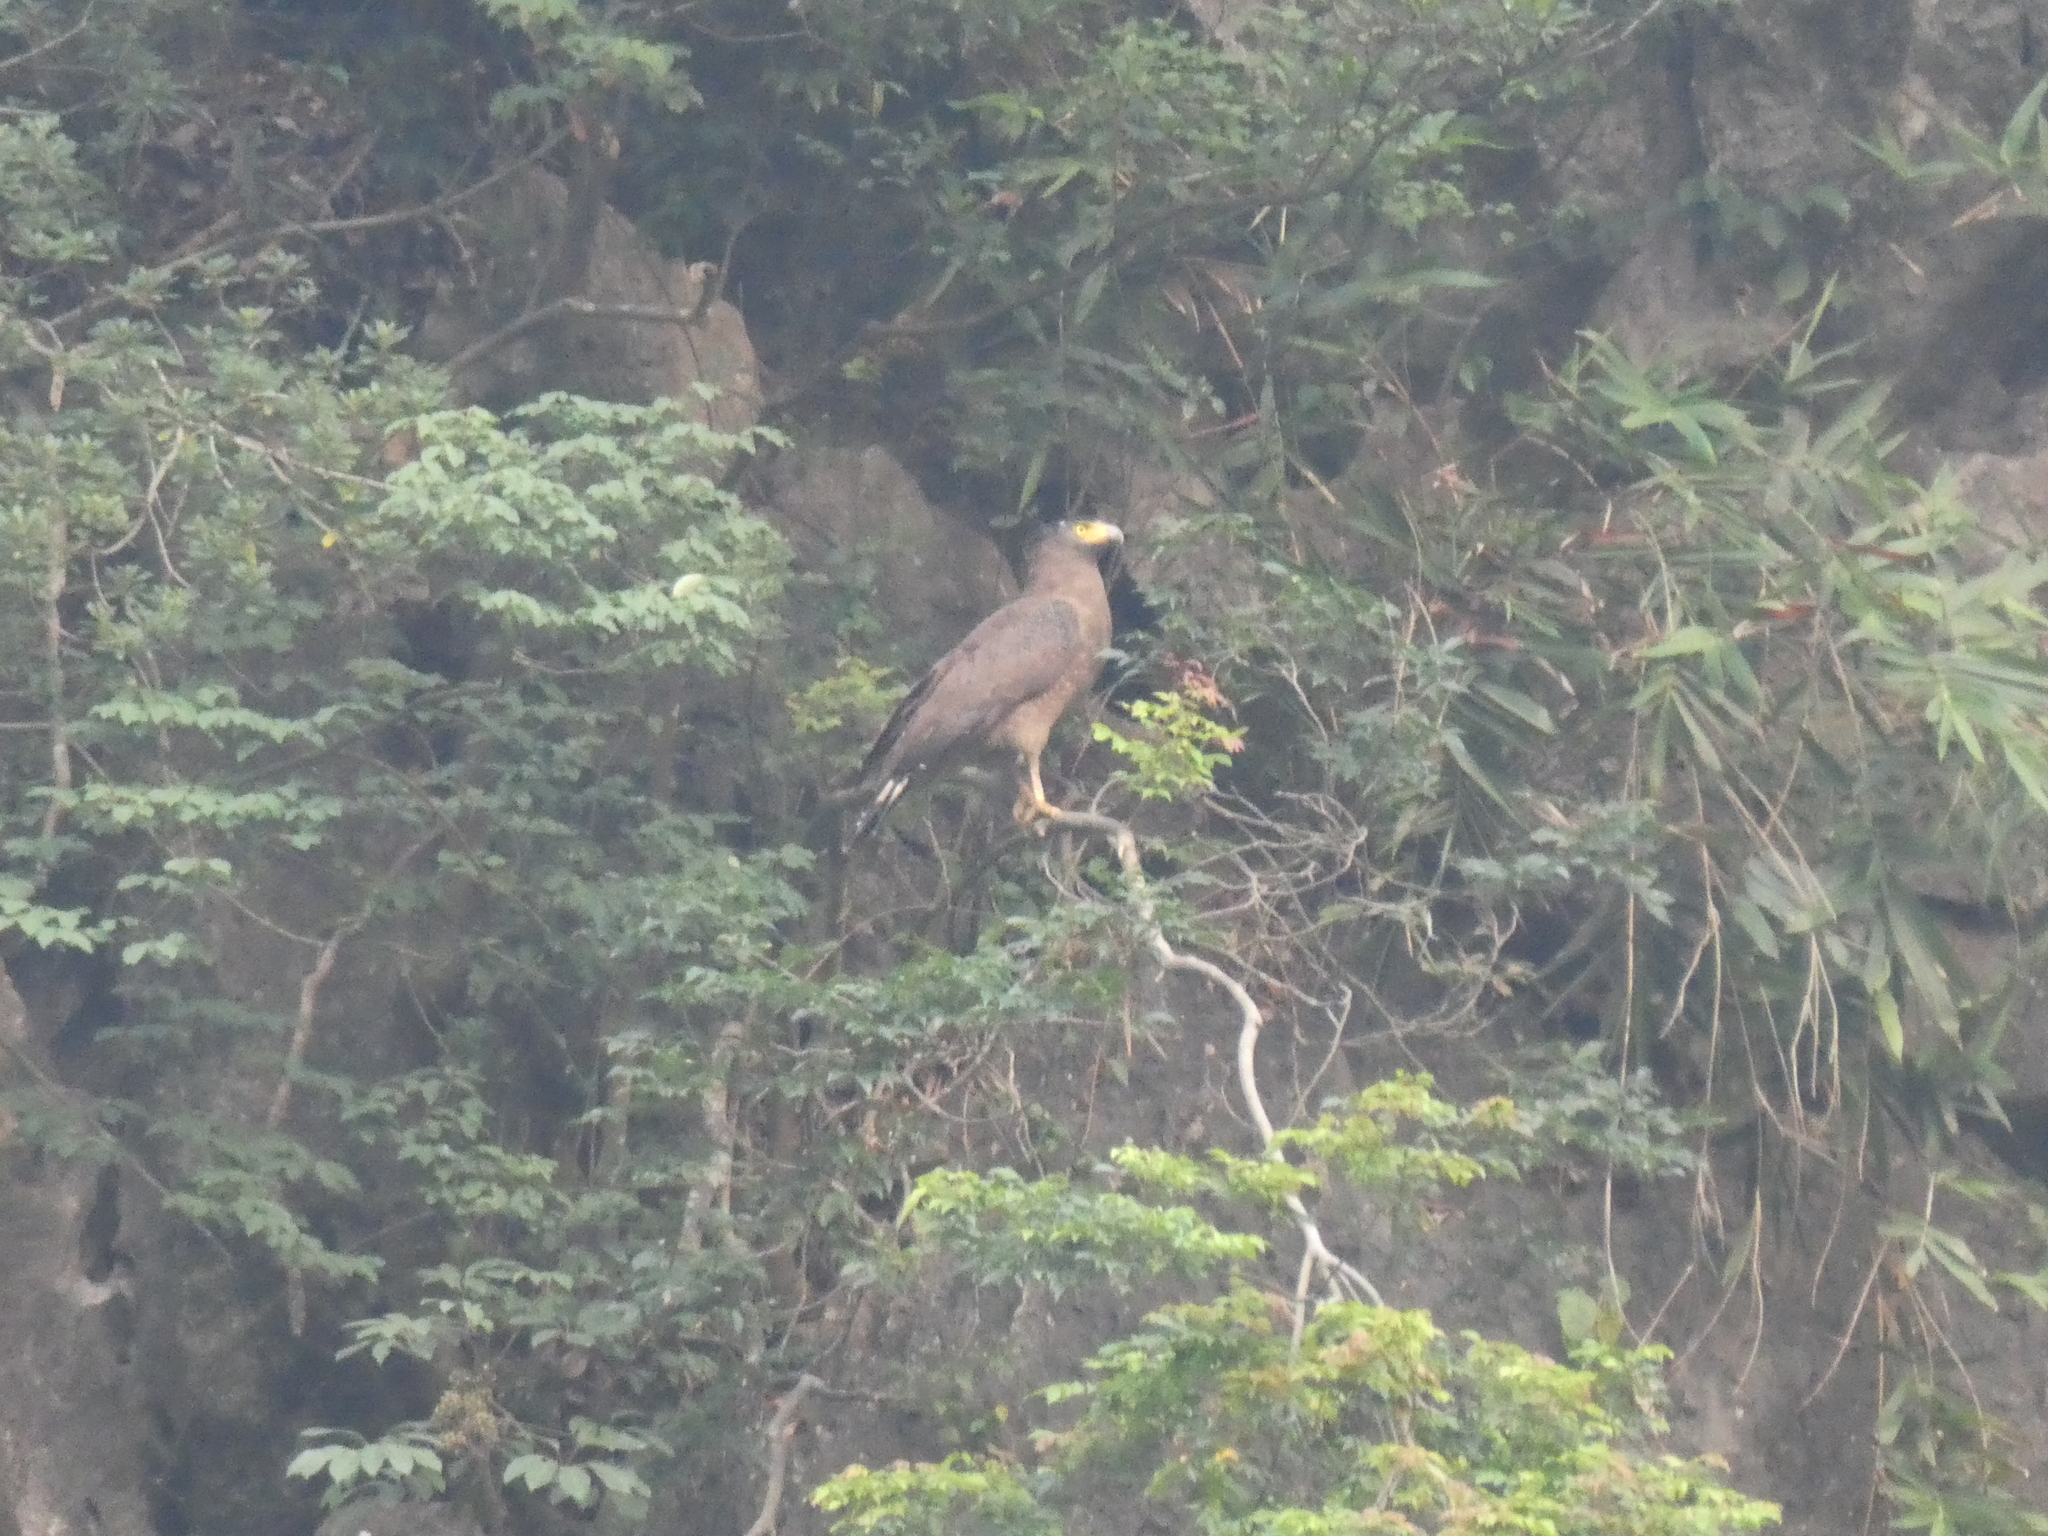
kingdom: Animalia
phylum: Chordata
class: Aves
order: Accipitriformes
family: Accipitridae
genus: Spilornis
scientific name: Spilornis cheela
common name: Crested serpent eagle
